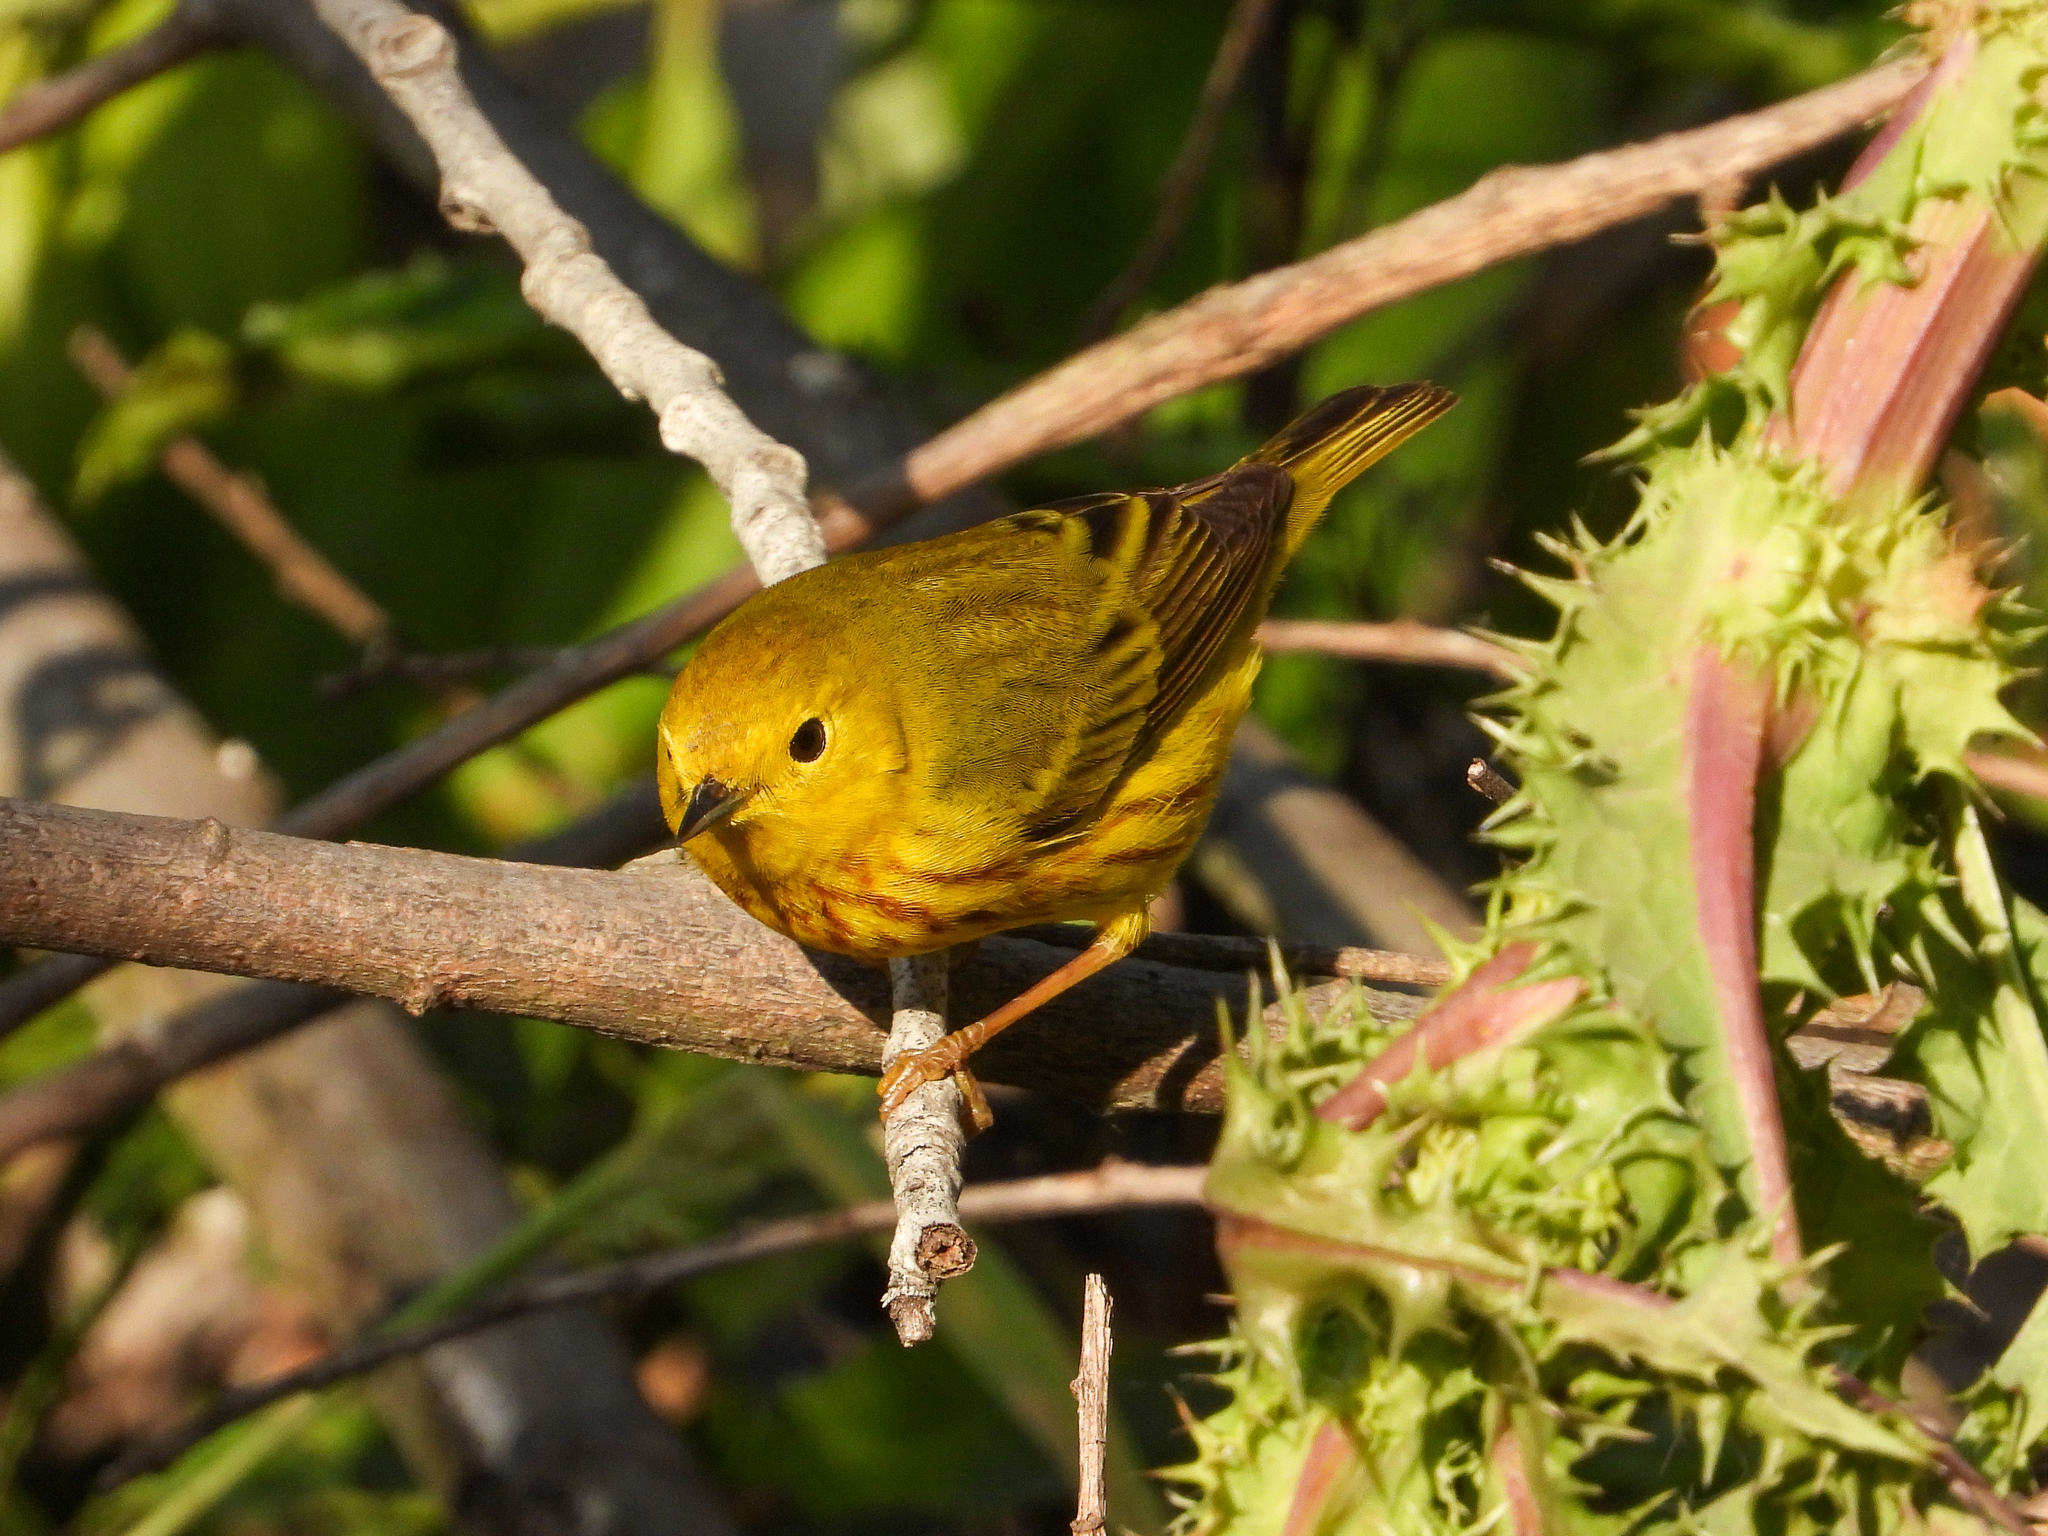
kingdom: Animalia
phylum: Chordata
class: Aves
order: Passeriformes
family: Parulidae
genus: Setophaga
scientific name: Setophaga petechia
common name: Yellow warbler
